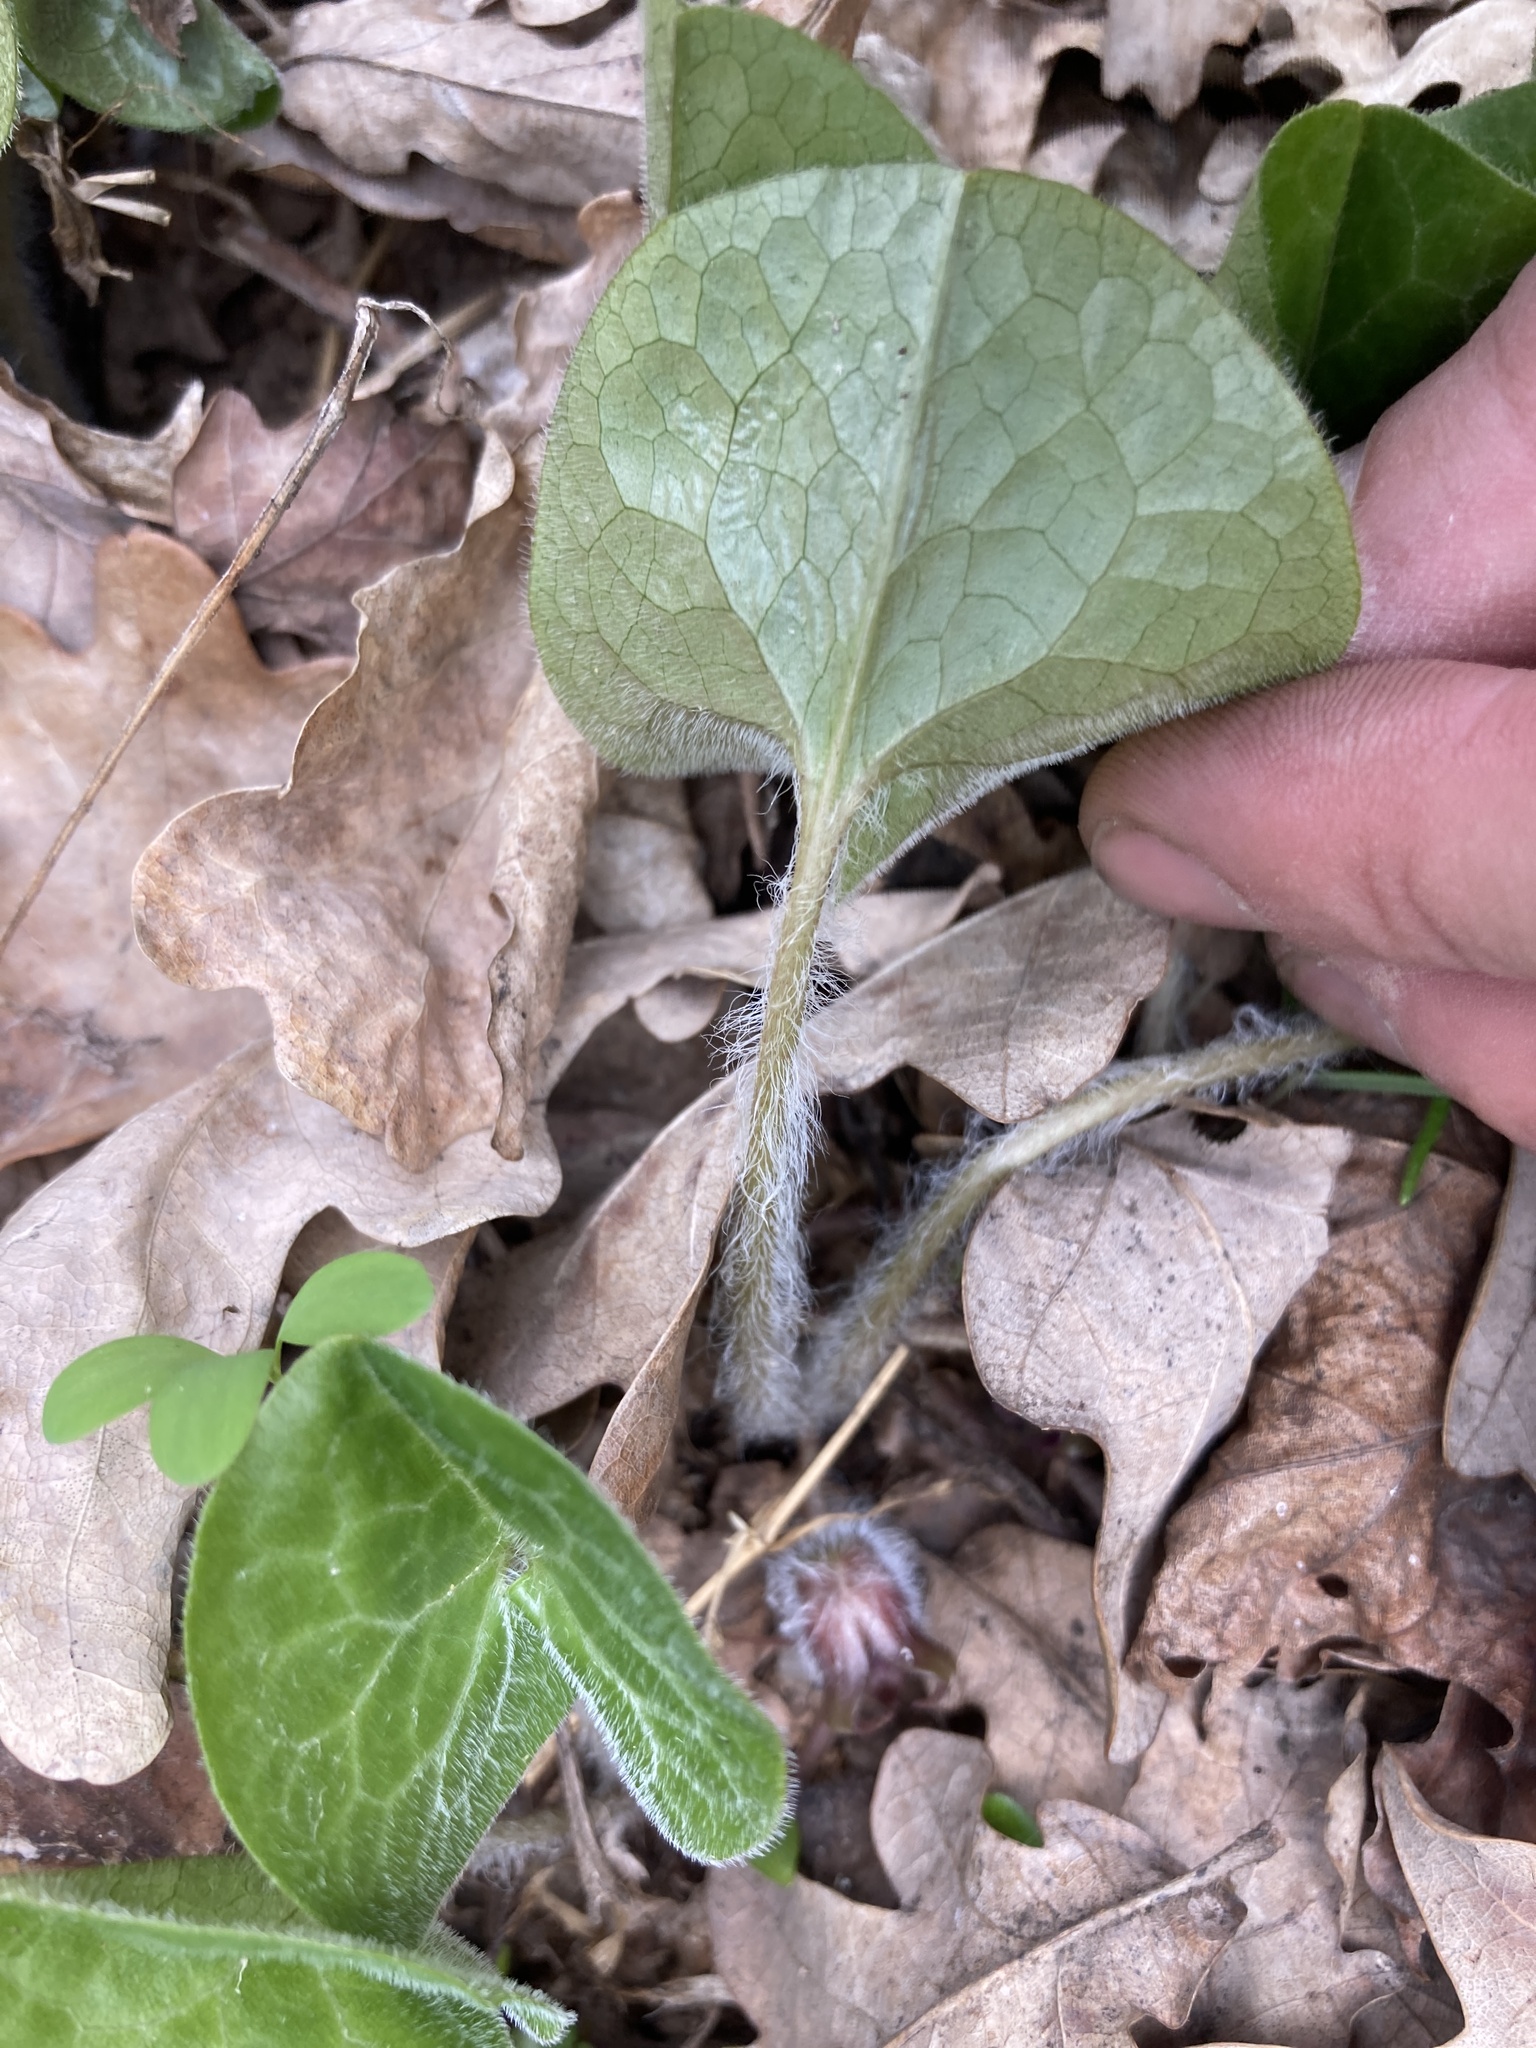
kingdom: Plantae
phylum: Tracheophyta
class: Magnoliopsida
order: Piperales
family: Aristolochiaceae
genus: Asarum
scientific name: Asarum europaeum
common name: Asarabacca
